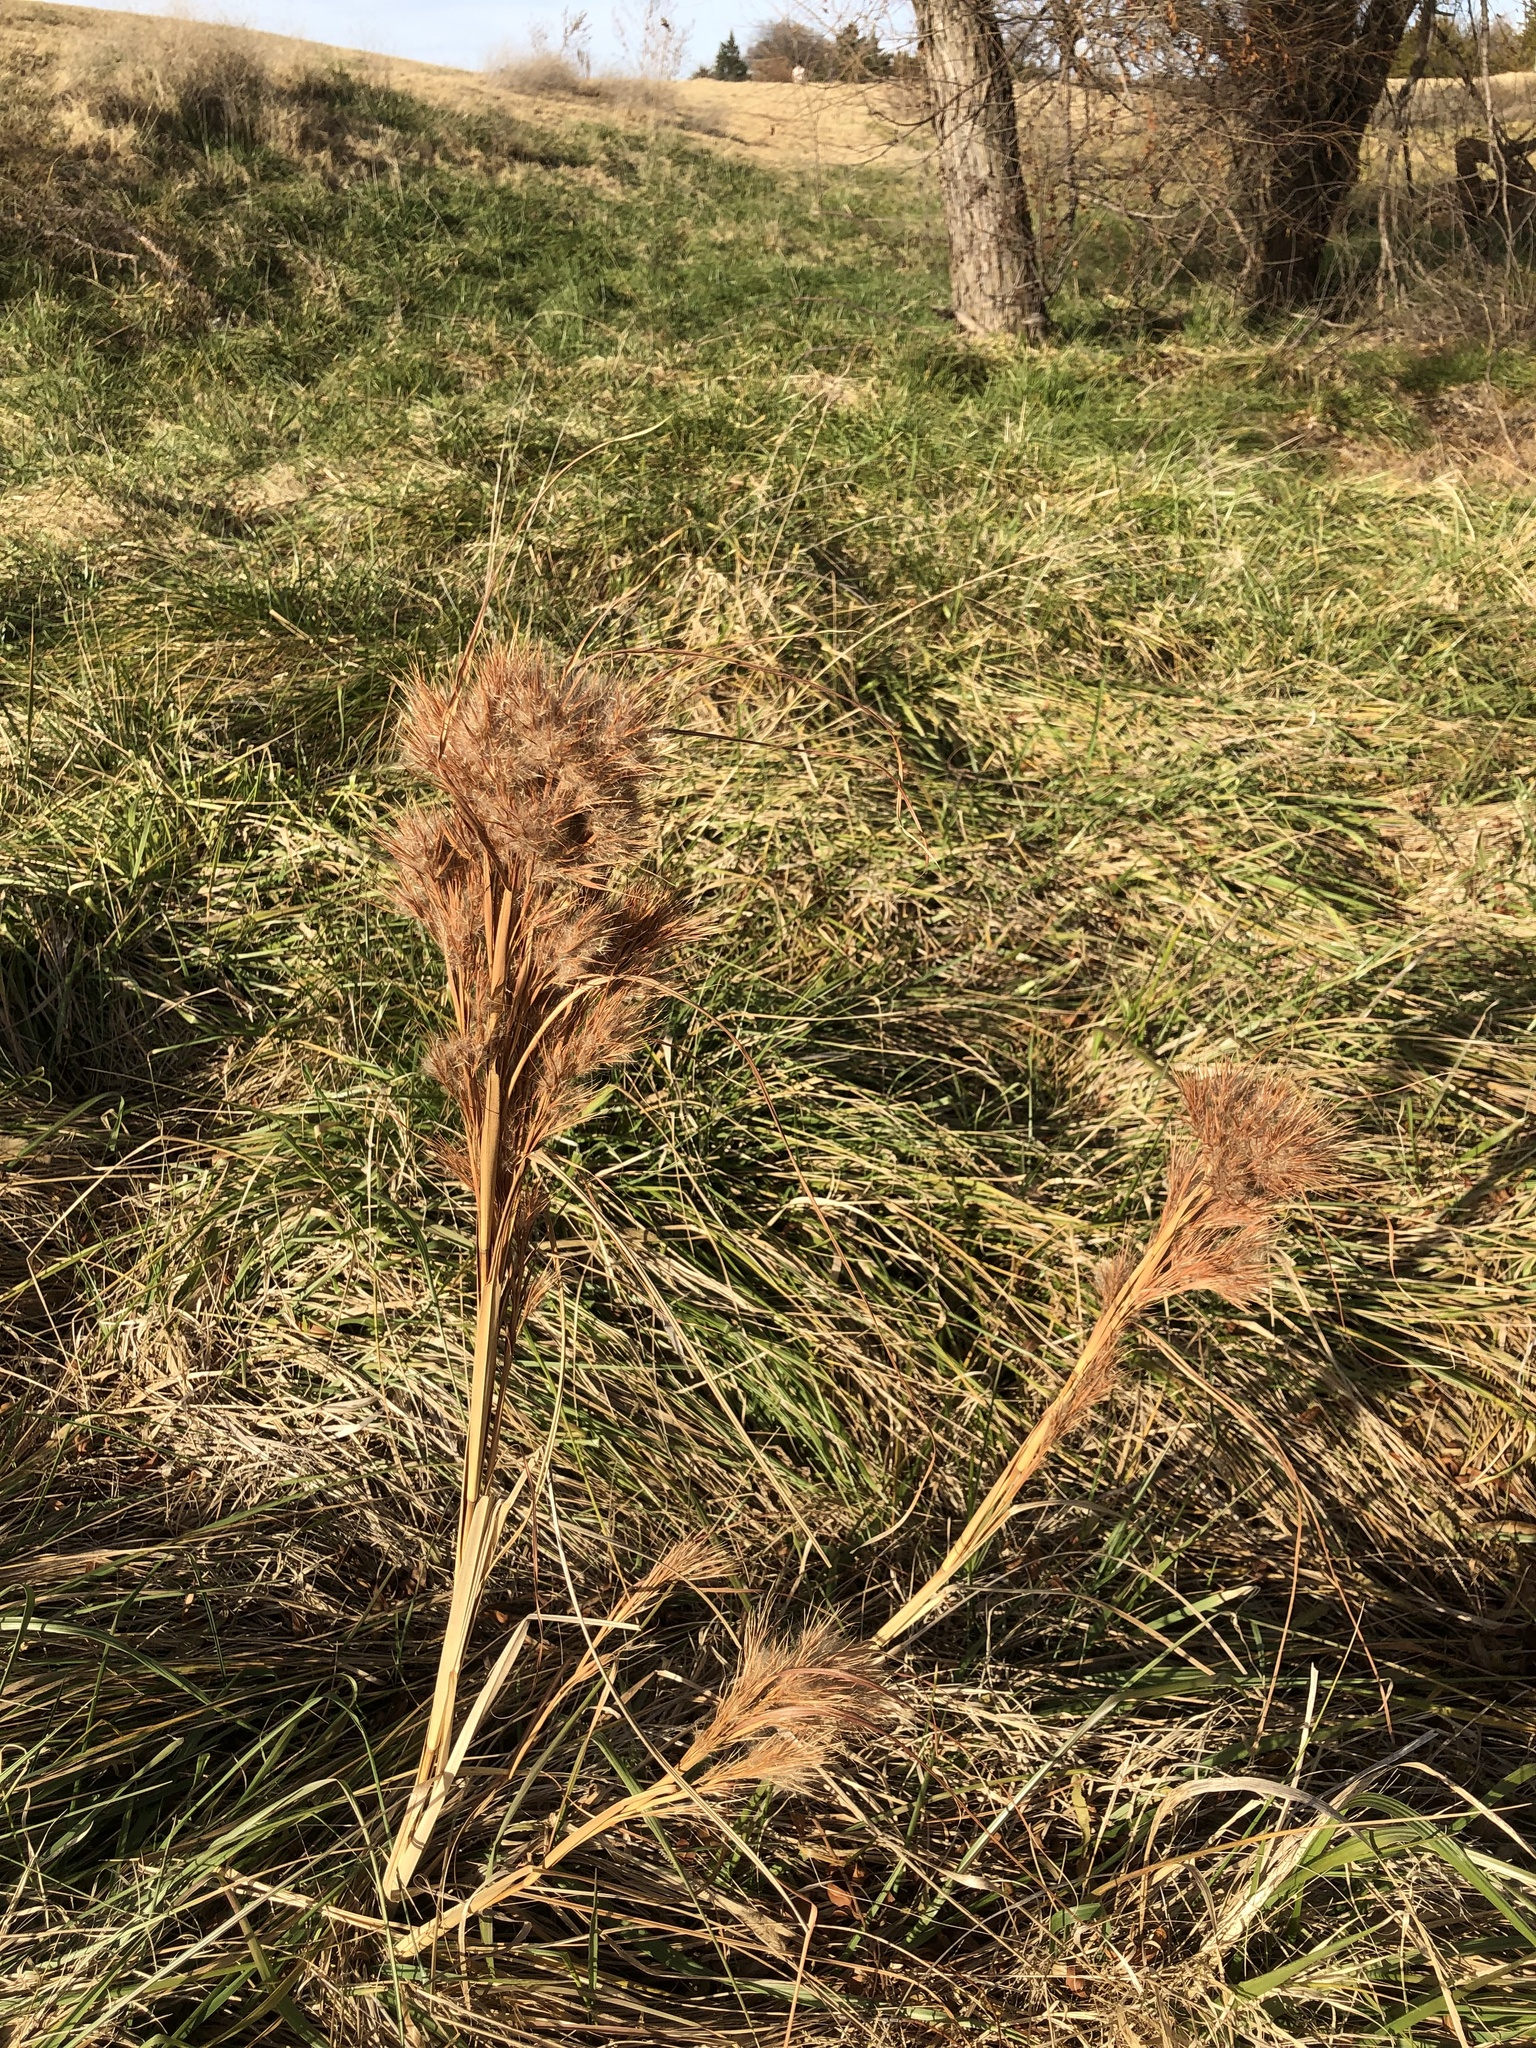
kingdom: Plantae
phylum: Tracheophyta
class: Liliopsida
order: Poales
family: Poaceae
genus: Andropogon
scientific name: Andropogon tenuispatheus
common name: Bushy bluestem
